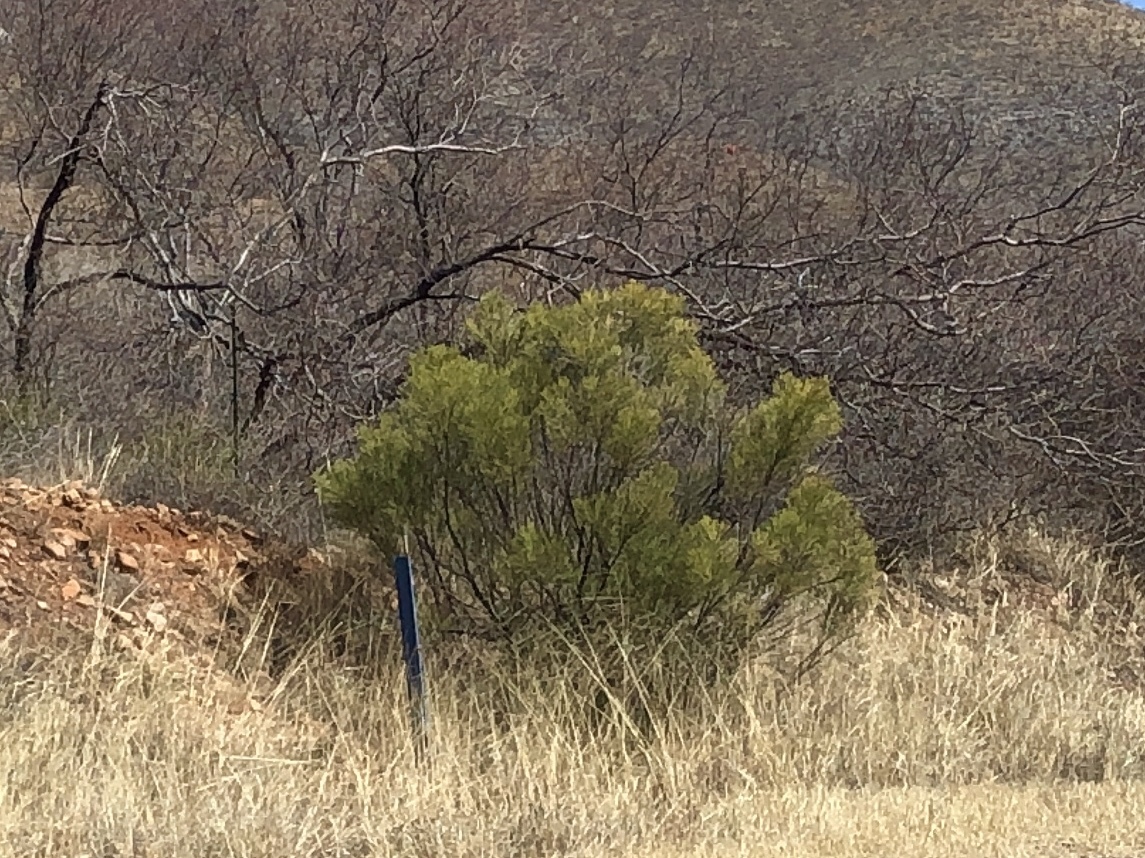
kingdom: Plantae
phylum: Tracheophyta
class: Magnoliopsida
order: Asterales
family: Asteraceae
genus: Baccharis
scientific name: Baccharis sarothroides
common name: Desert-broom
